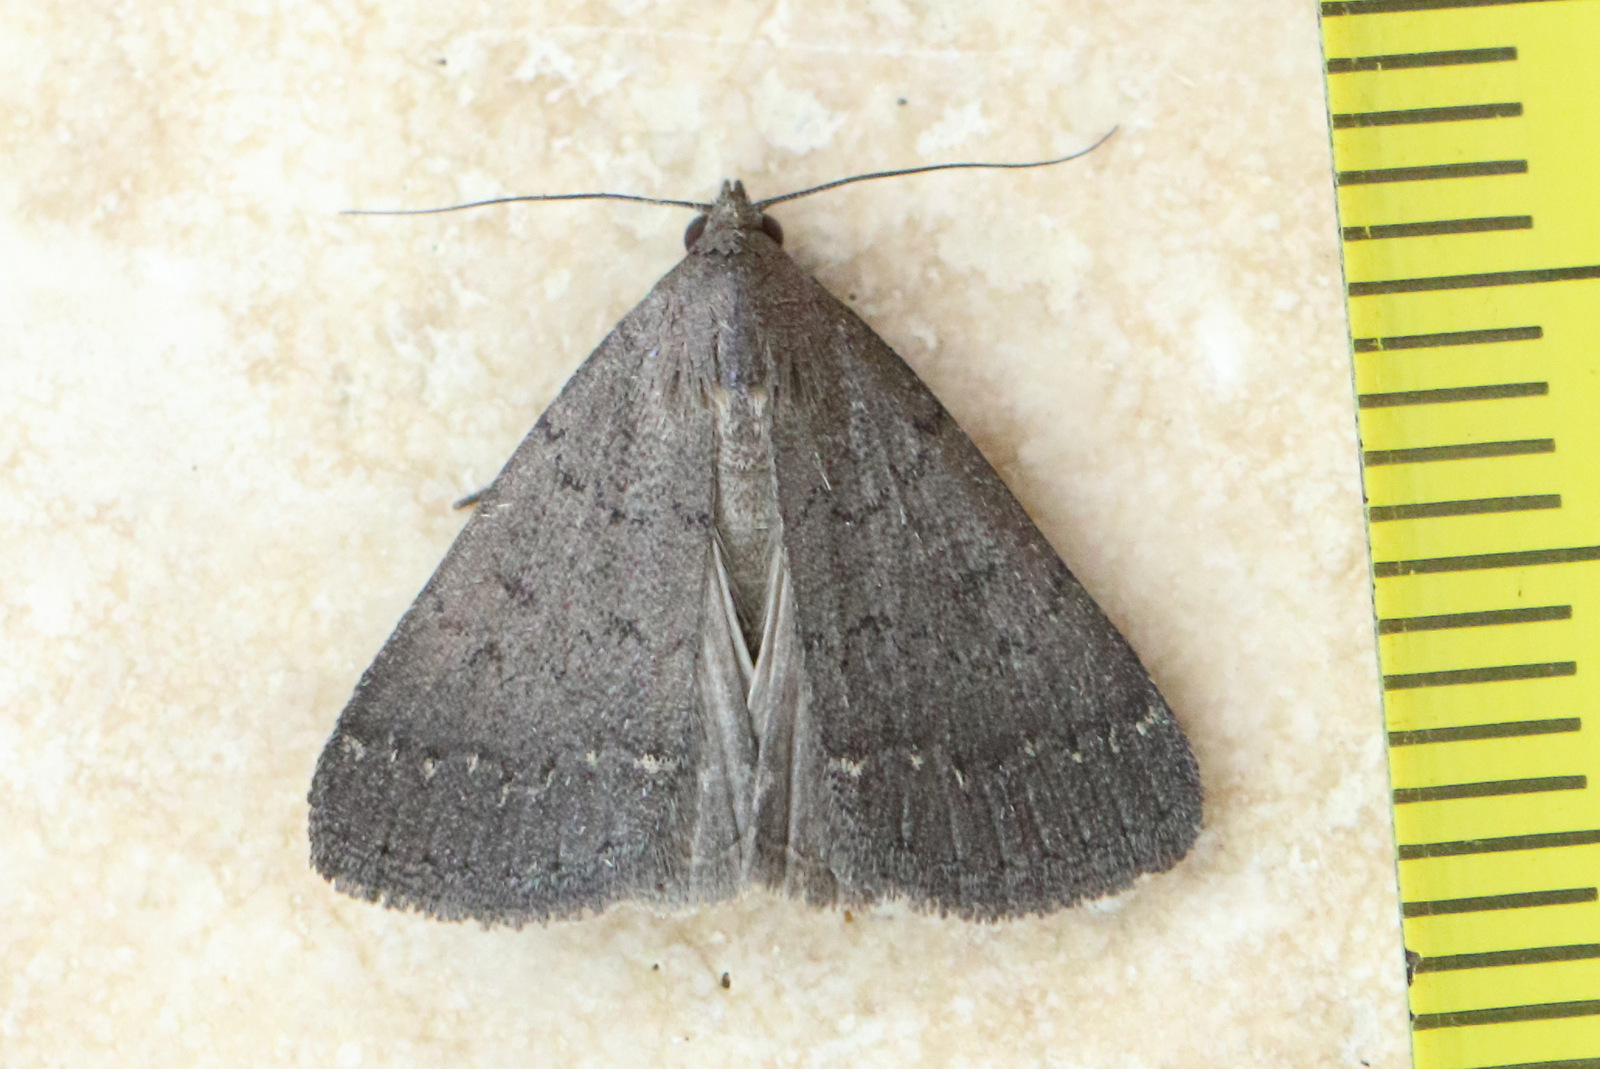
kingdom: Animalia
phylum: Arthropoda
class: Insecta
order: Lepidoptera
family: Erebidae
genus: Simplicia
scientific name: Simplicia cornicalis
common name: Tiki hut litter moth
